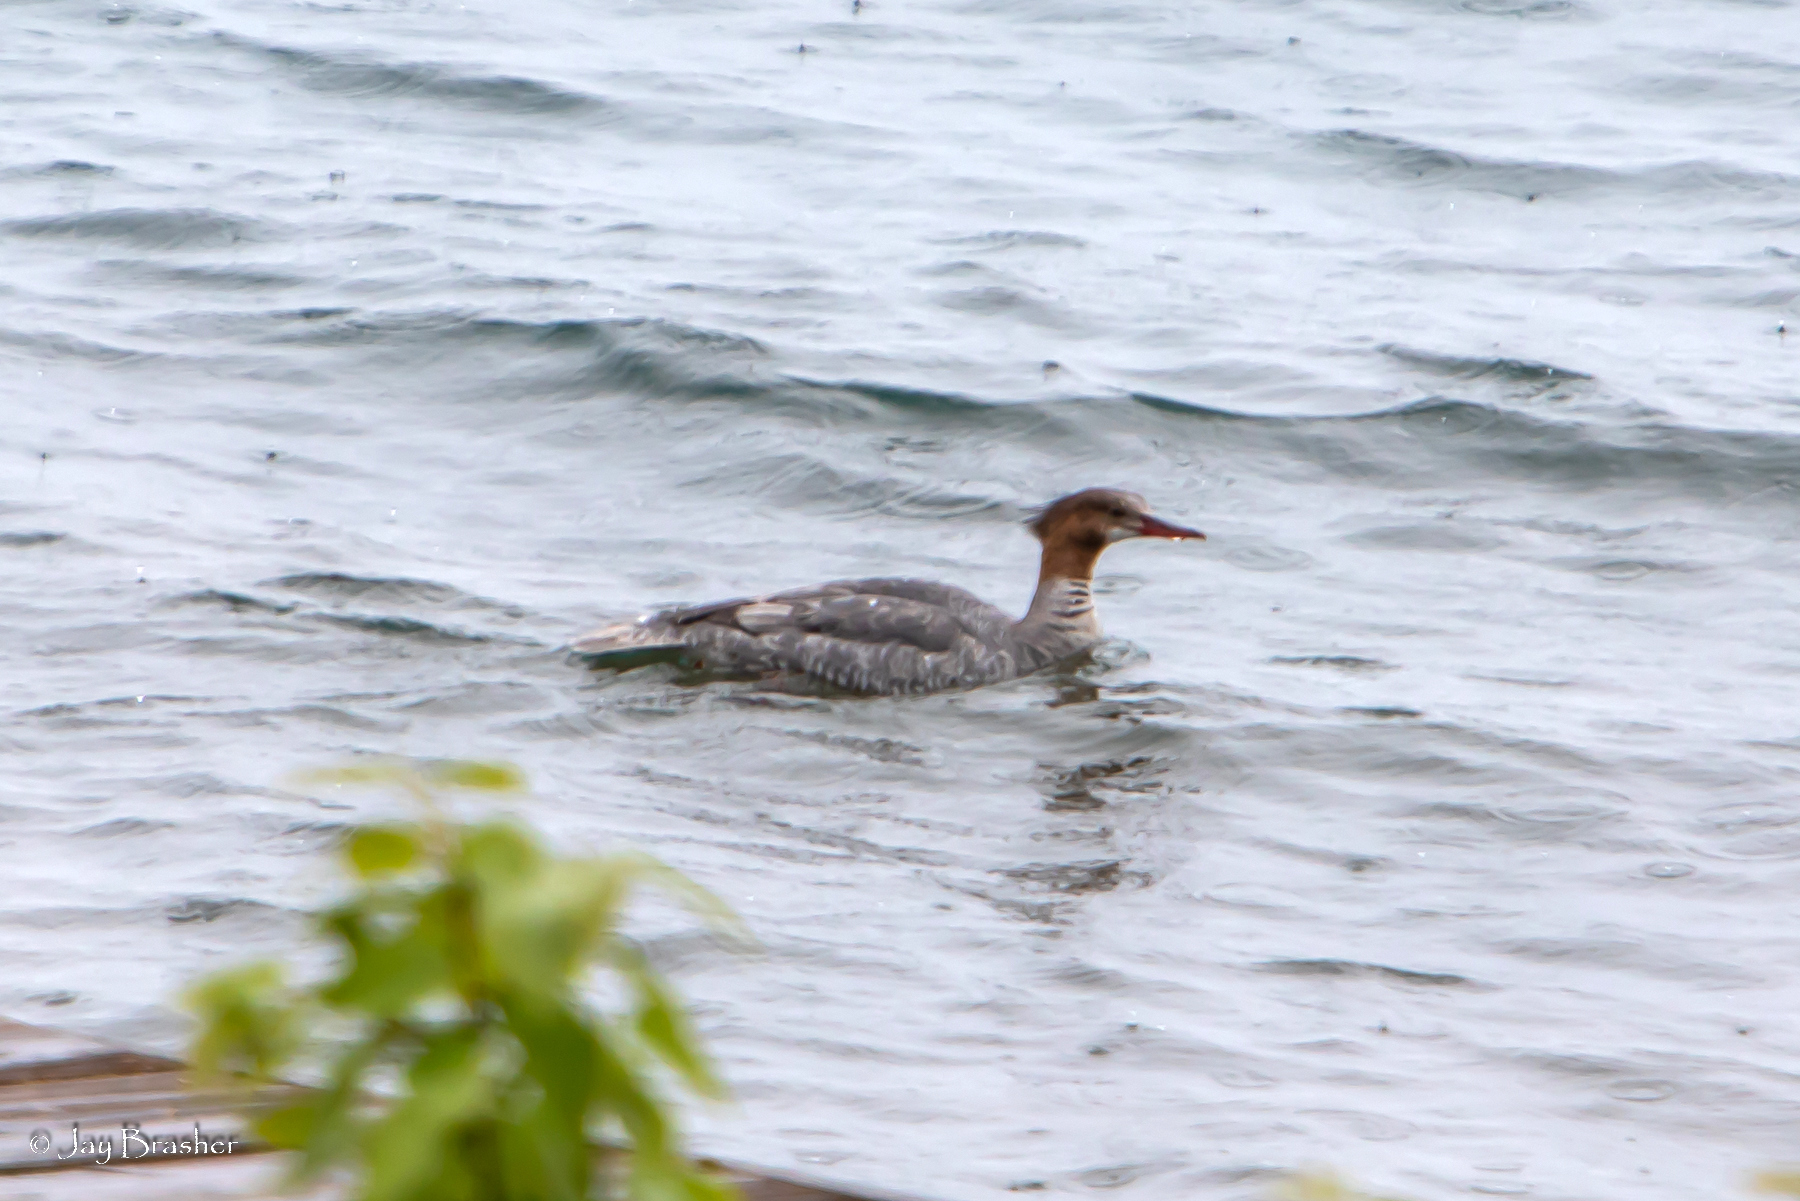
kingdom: Animalia
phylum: Chordata
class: Aves
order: Anseriformes
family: Anatidae
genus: Mergus
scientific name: Mergus merganser
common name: Common merganser
